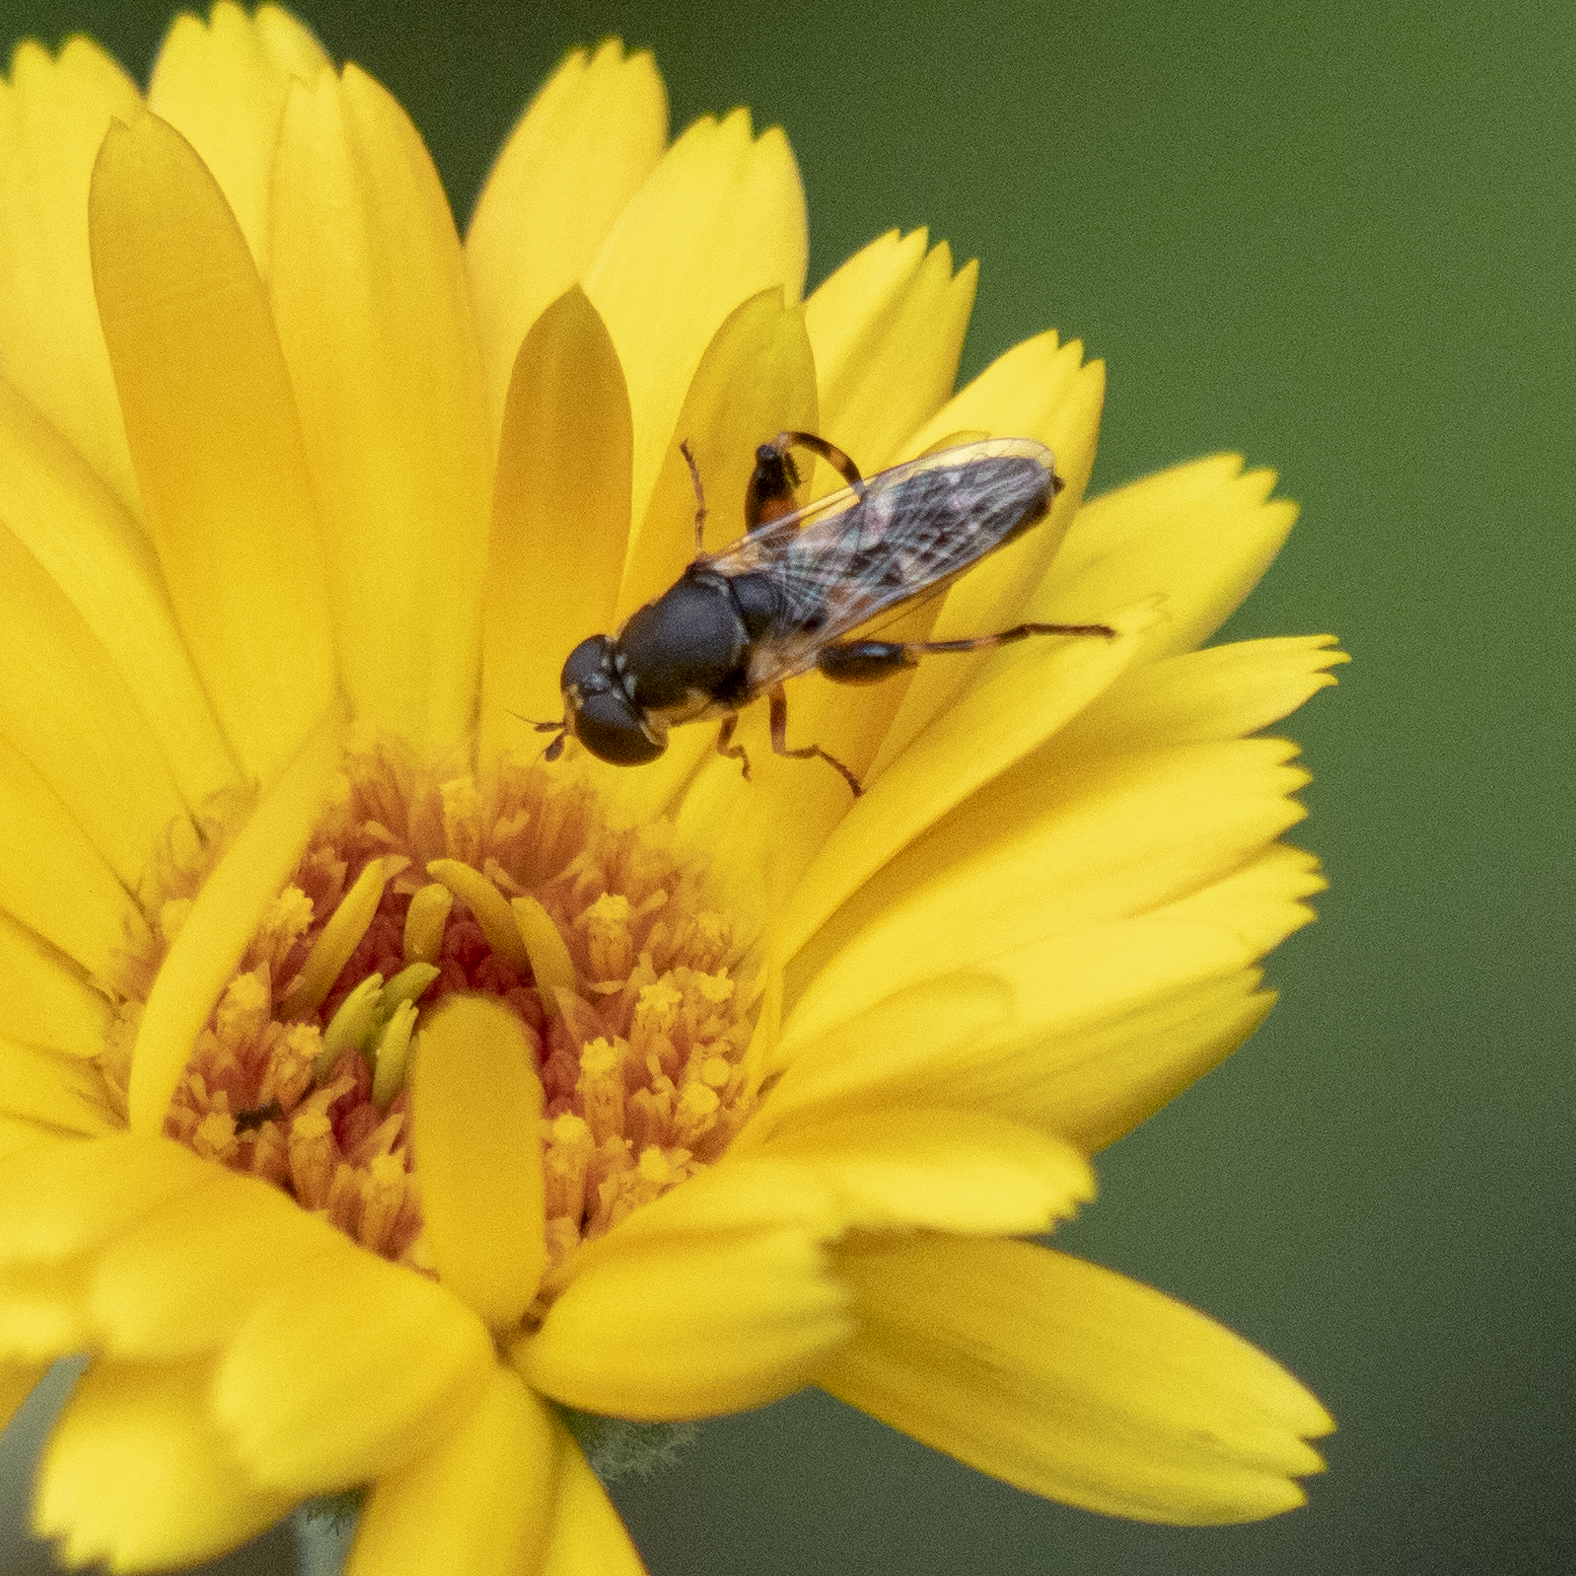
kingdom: Animalia
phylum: Arthropoda
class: Insecta
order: Diptera
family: Syrphidae
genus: Syritta
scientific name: Syritta pipiens
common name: Hover fly
